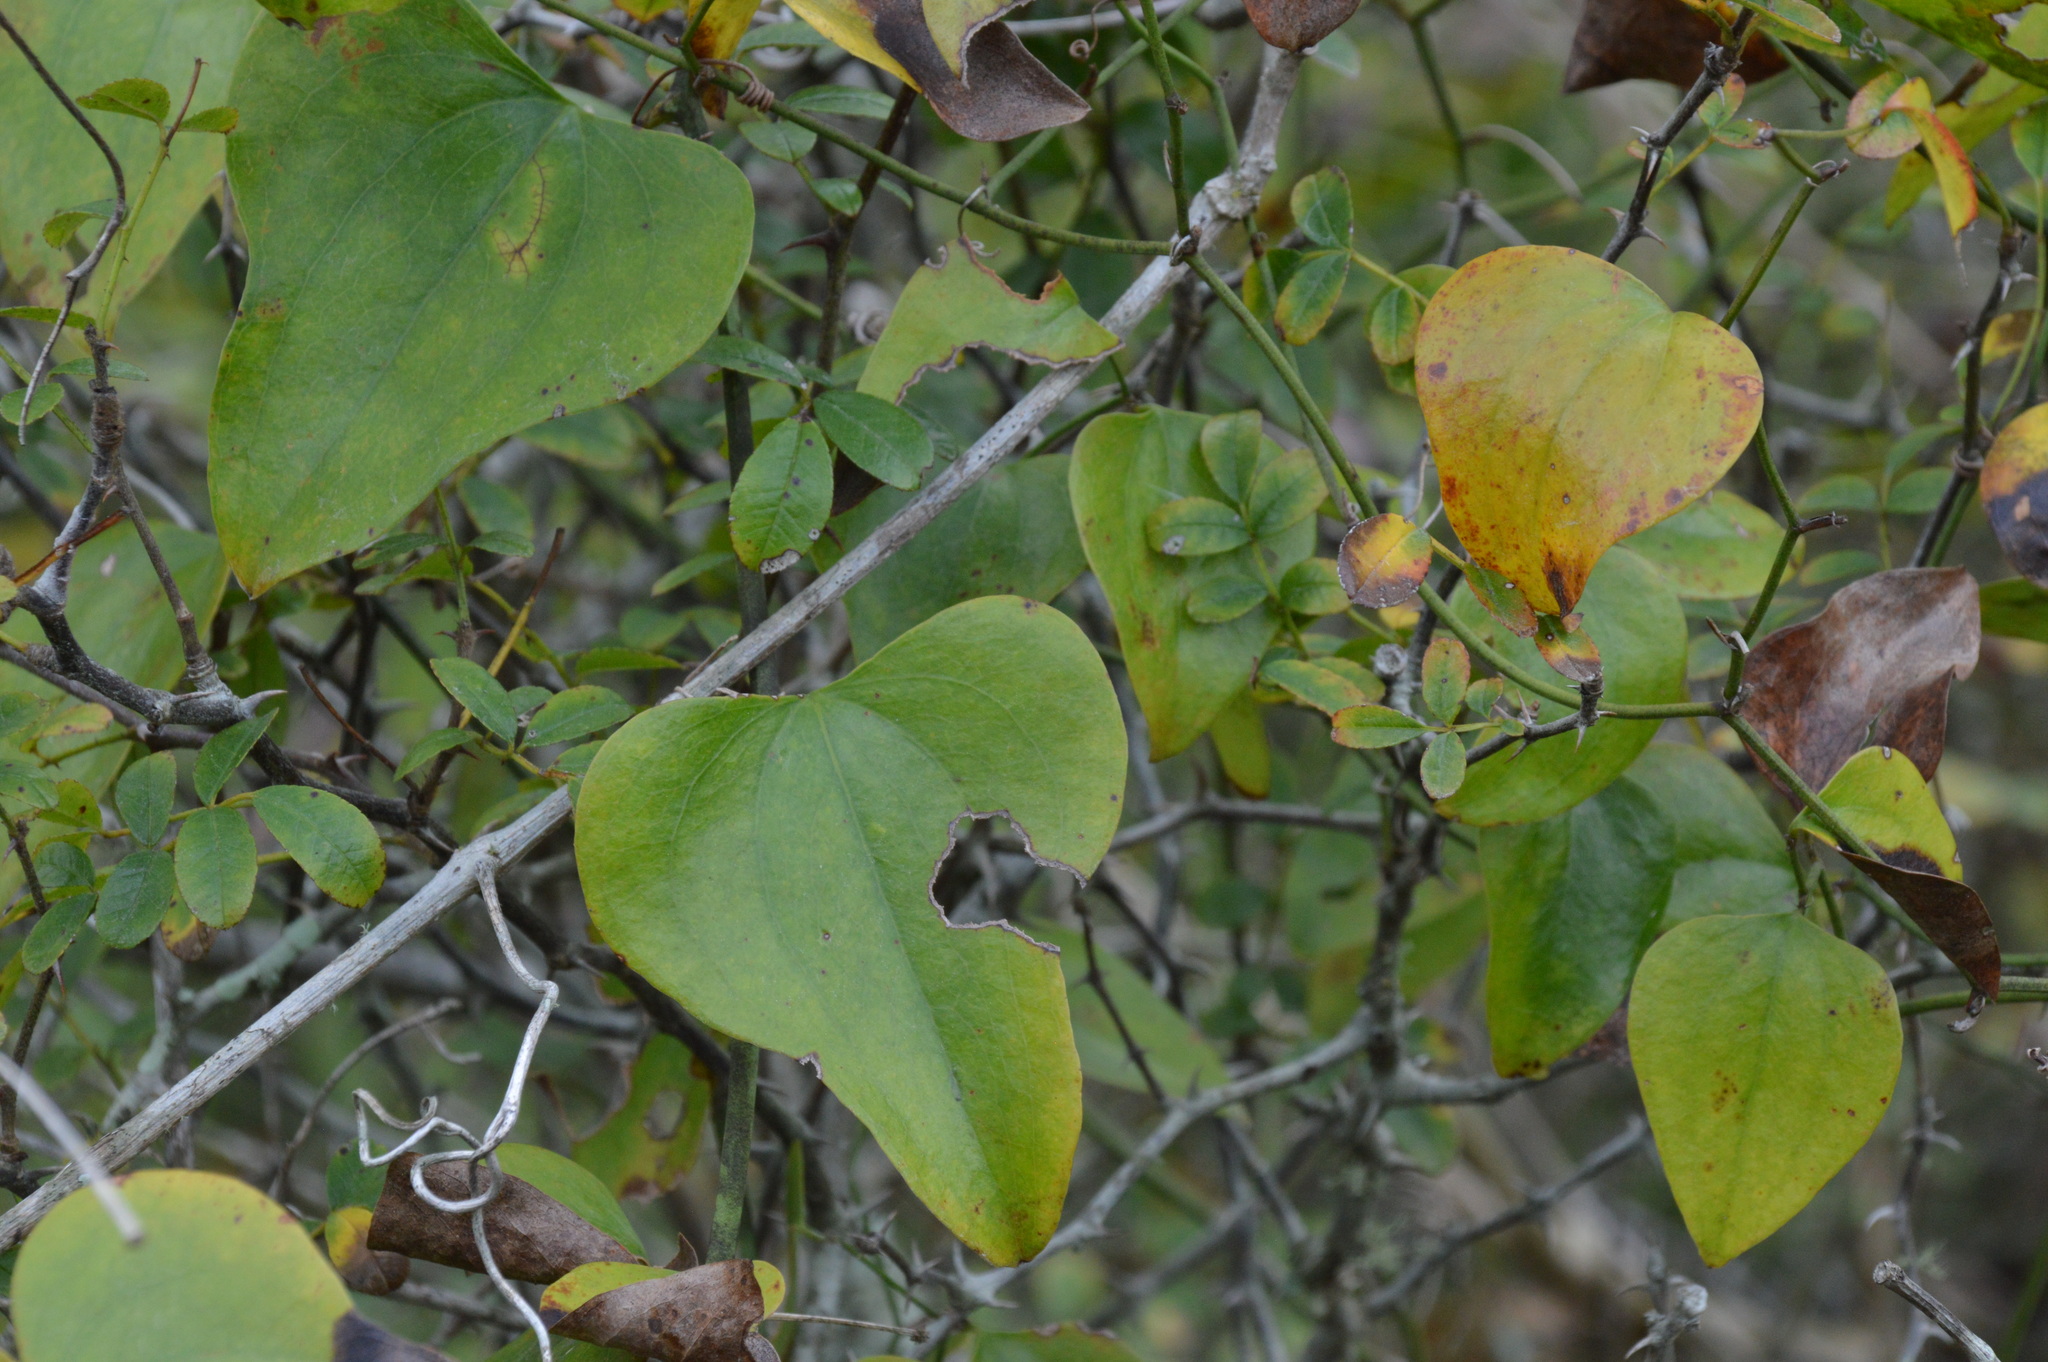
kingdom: Plantae
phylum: Tracheophyta
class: Liliopsida
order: Liliales
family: Smilacaceae
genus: Smilax
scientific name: Smilax bona-nox
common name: Catbrier
